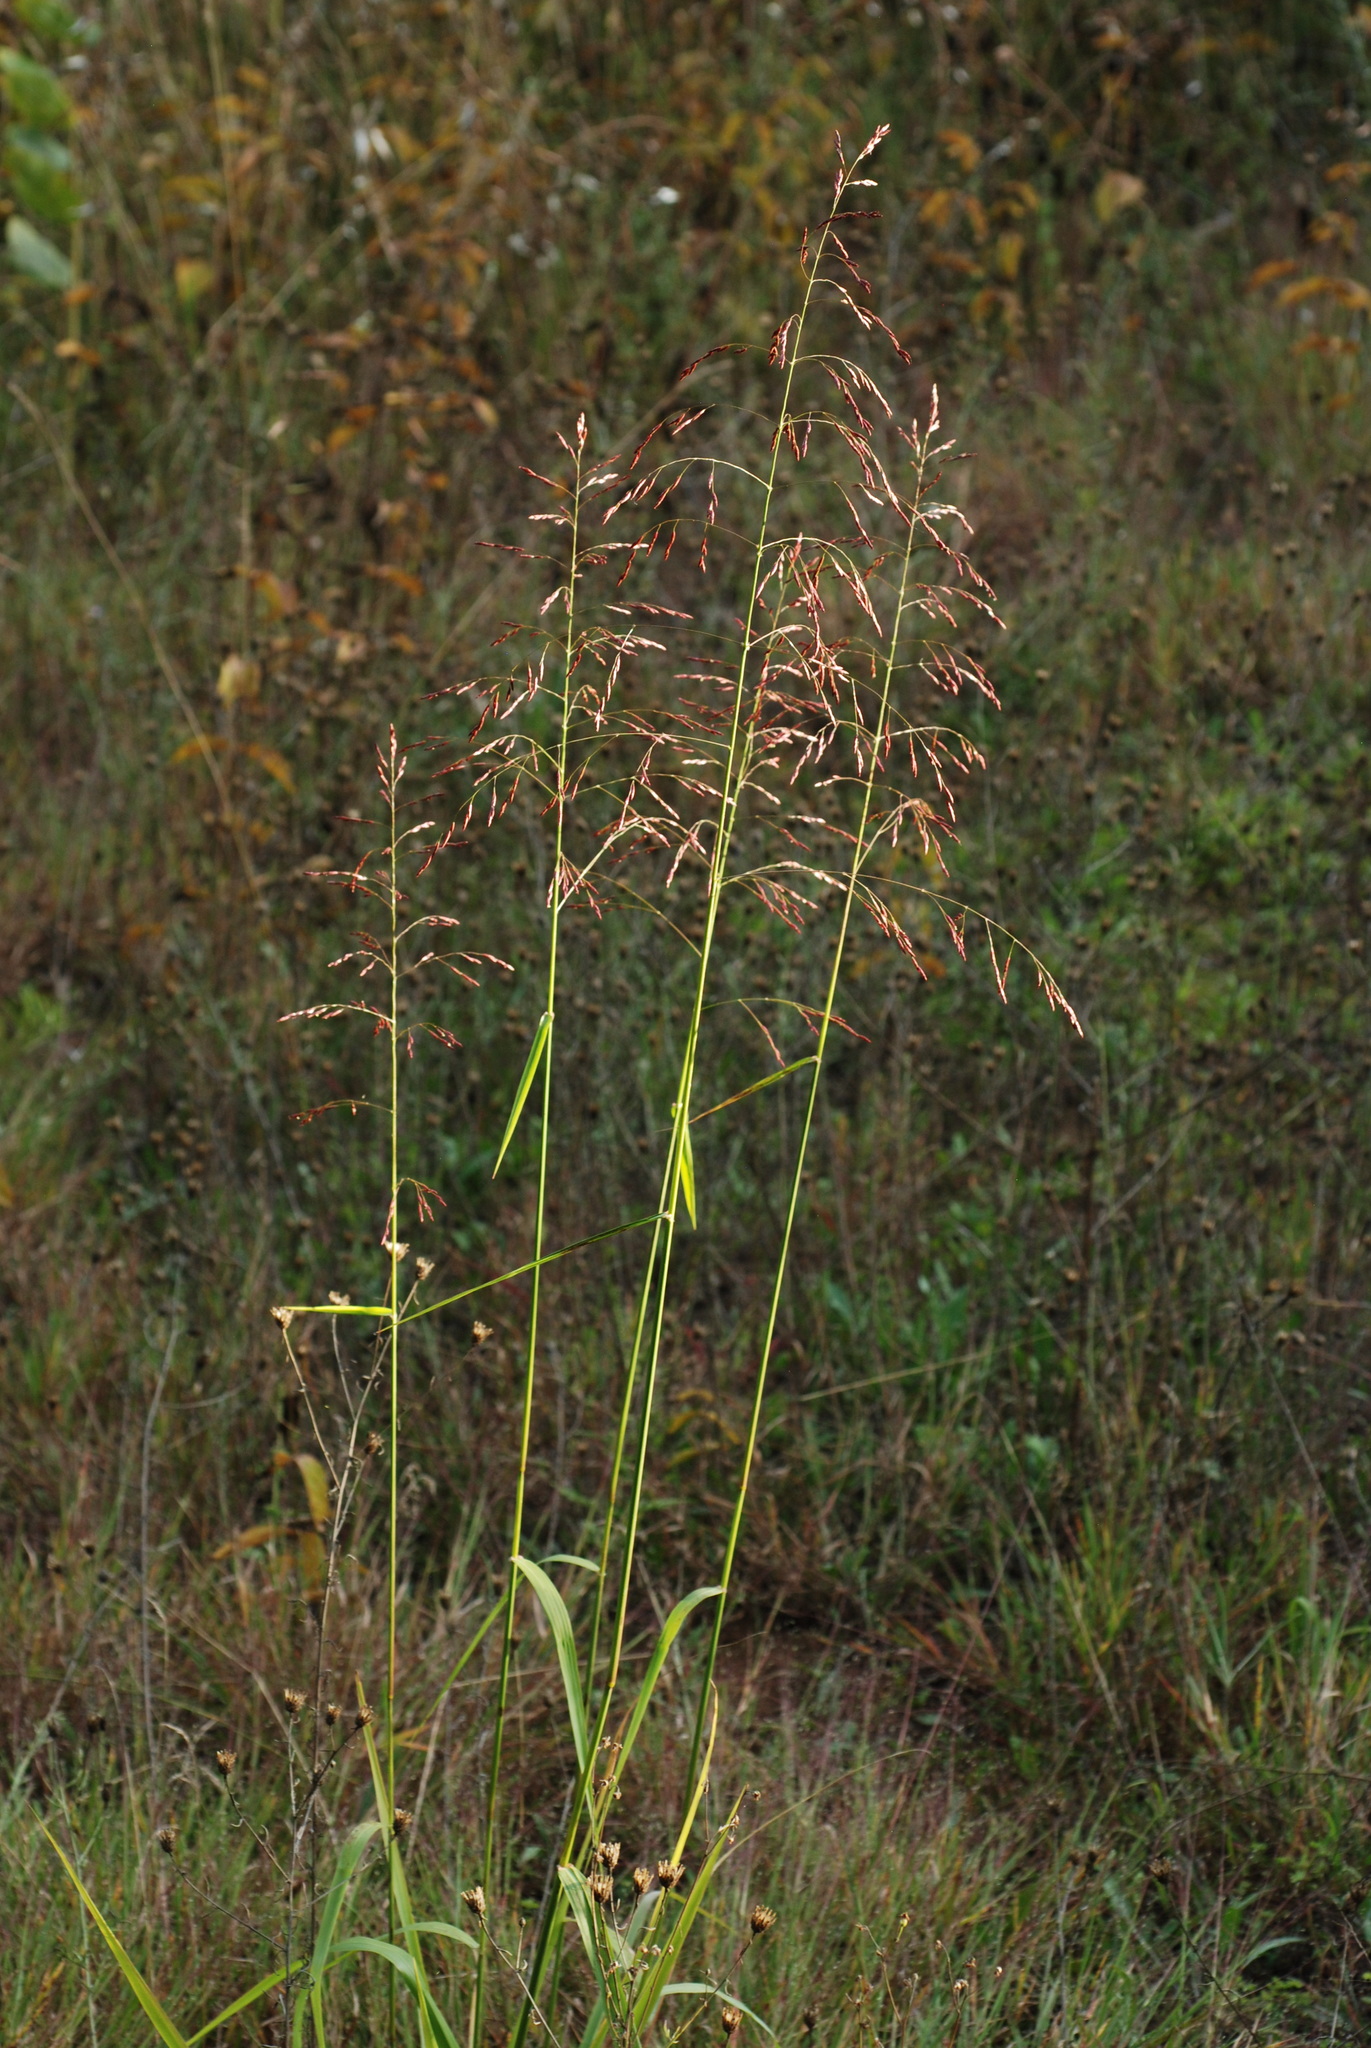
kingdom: Plantae
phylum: Tracheophyta
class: Liliopsida
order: Poales
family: Poaceae
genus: Tridens
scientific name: Tridens flavus
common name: Purpletop
